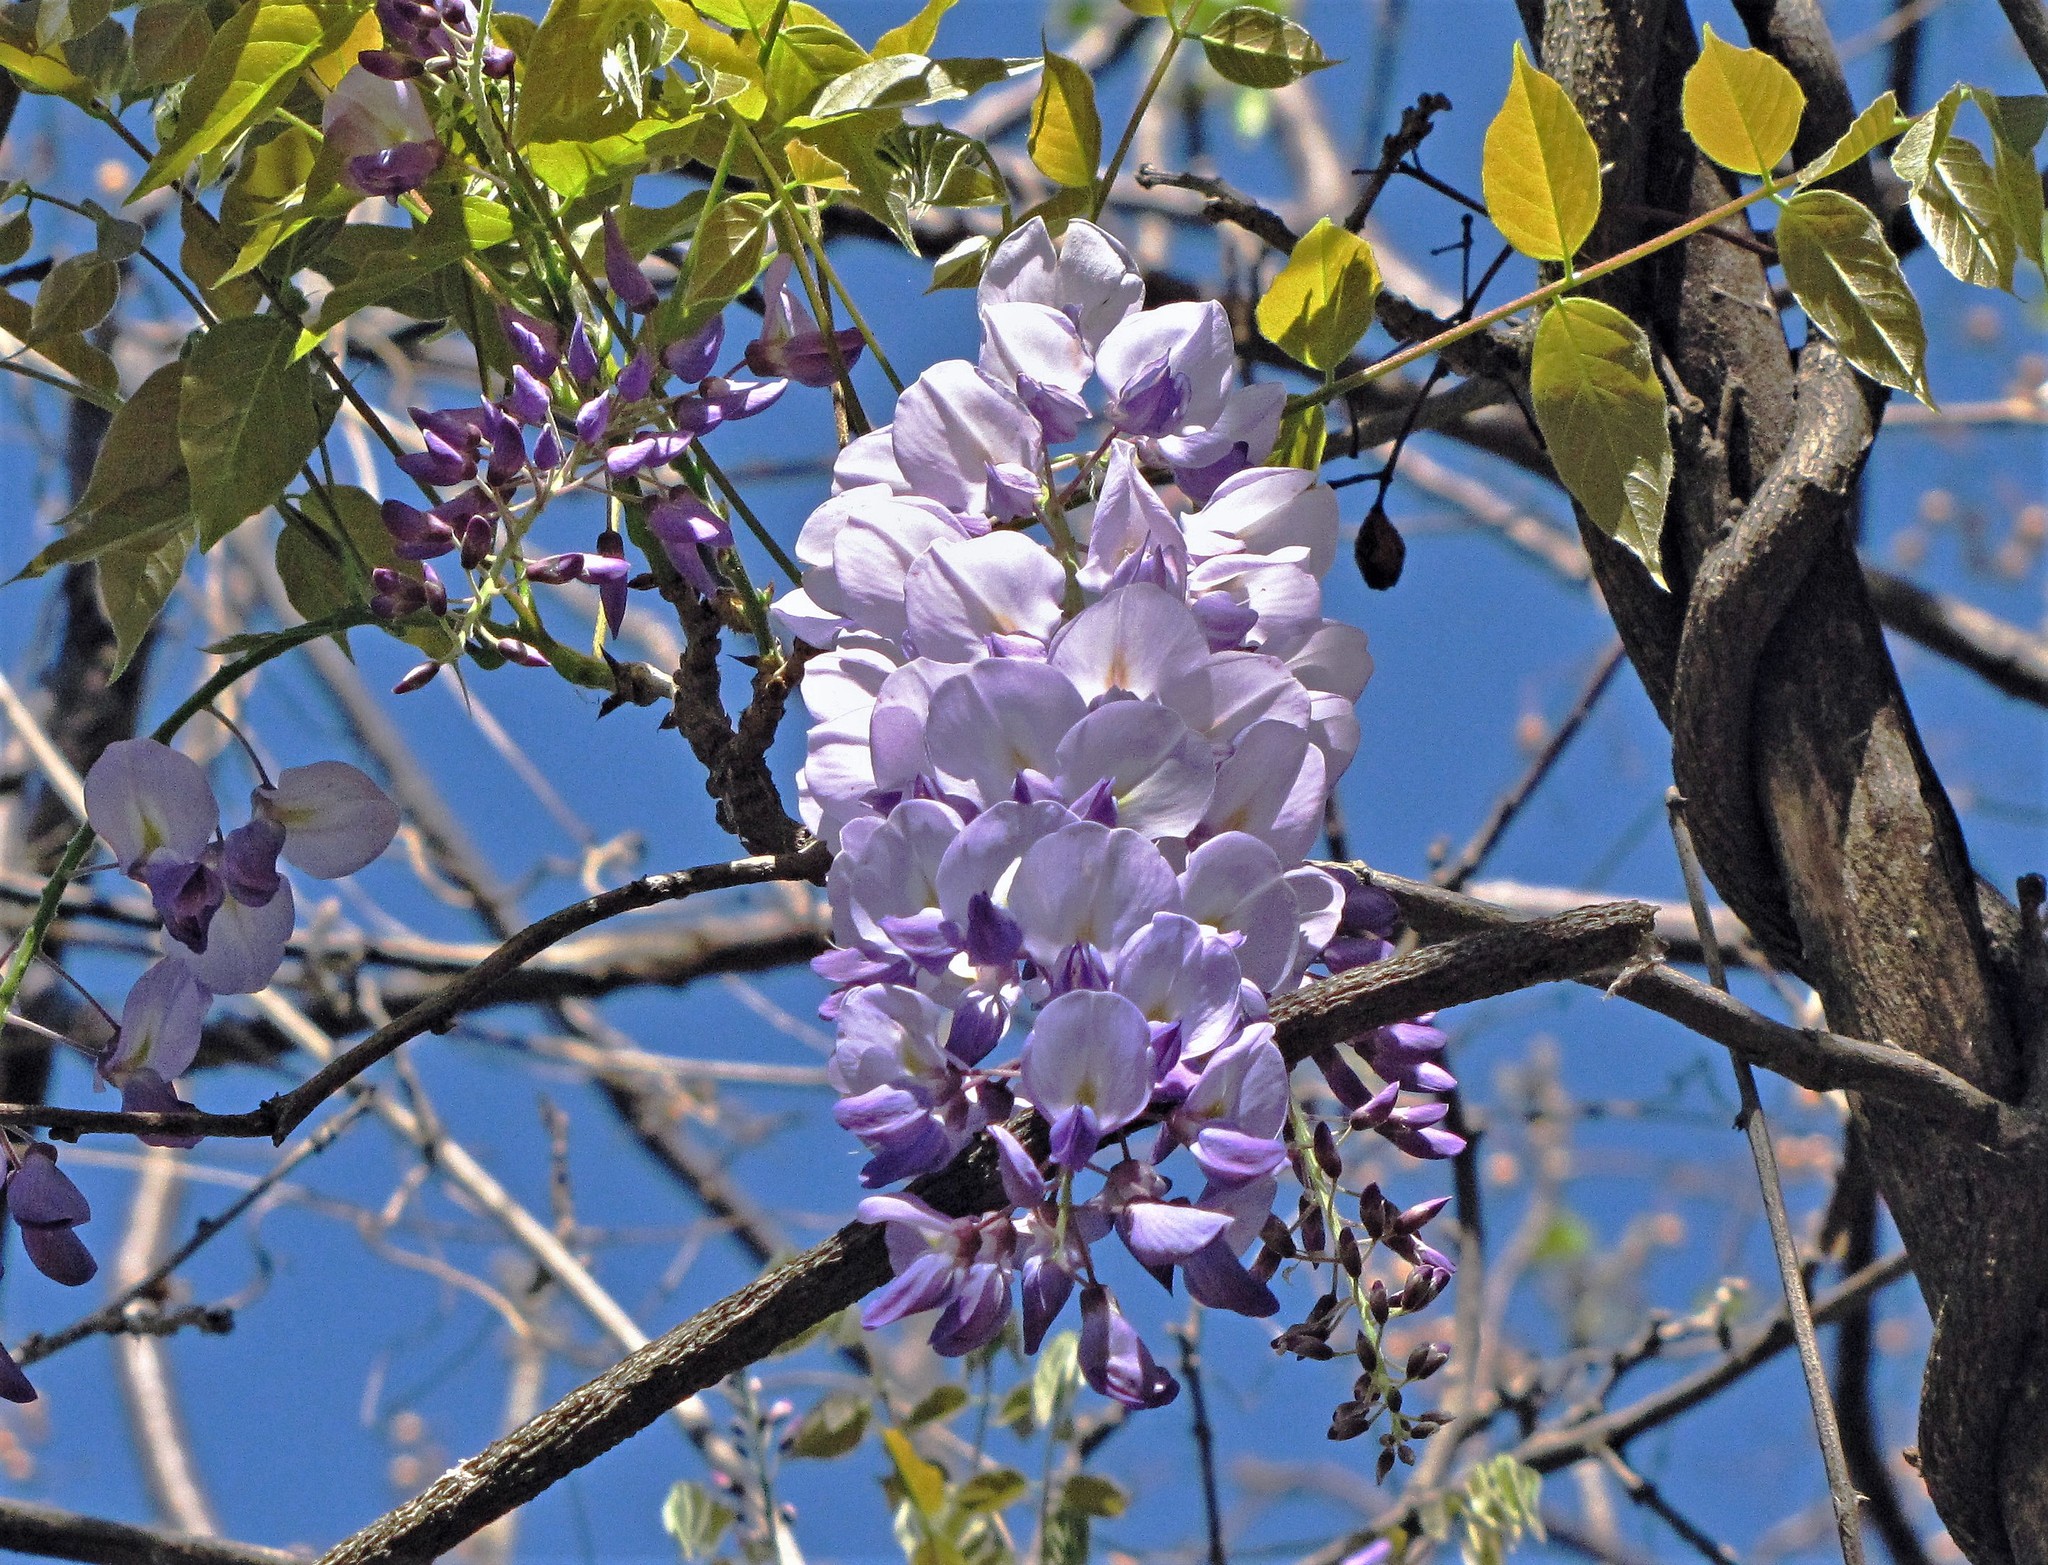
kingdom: Plantae
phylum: Tracheophyta
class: Magnoliopsida
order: Fabales
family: Fabaceae
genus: Wisteria
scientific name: Wisteria sinensis
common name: Chinese wisteria
